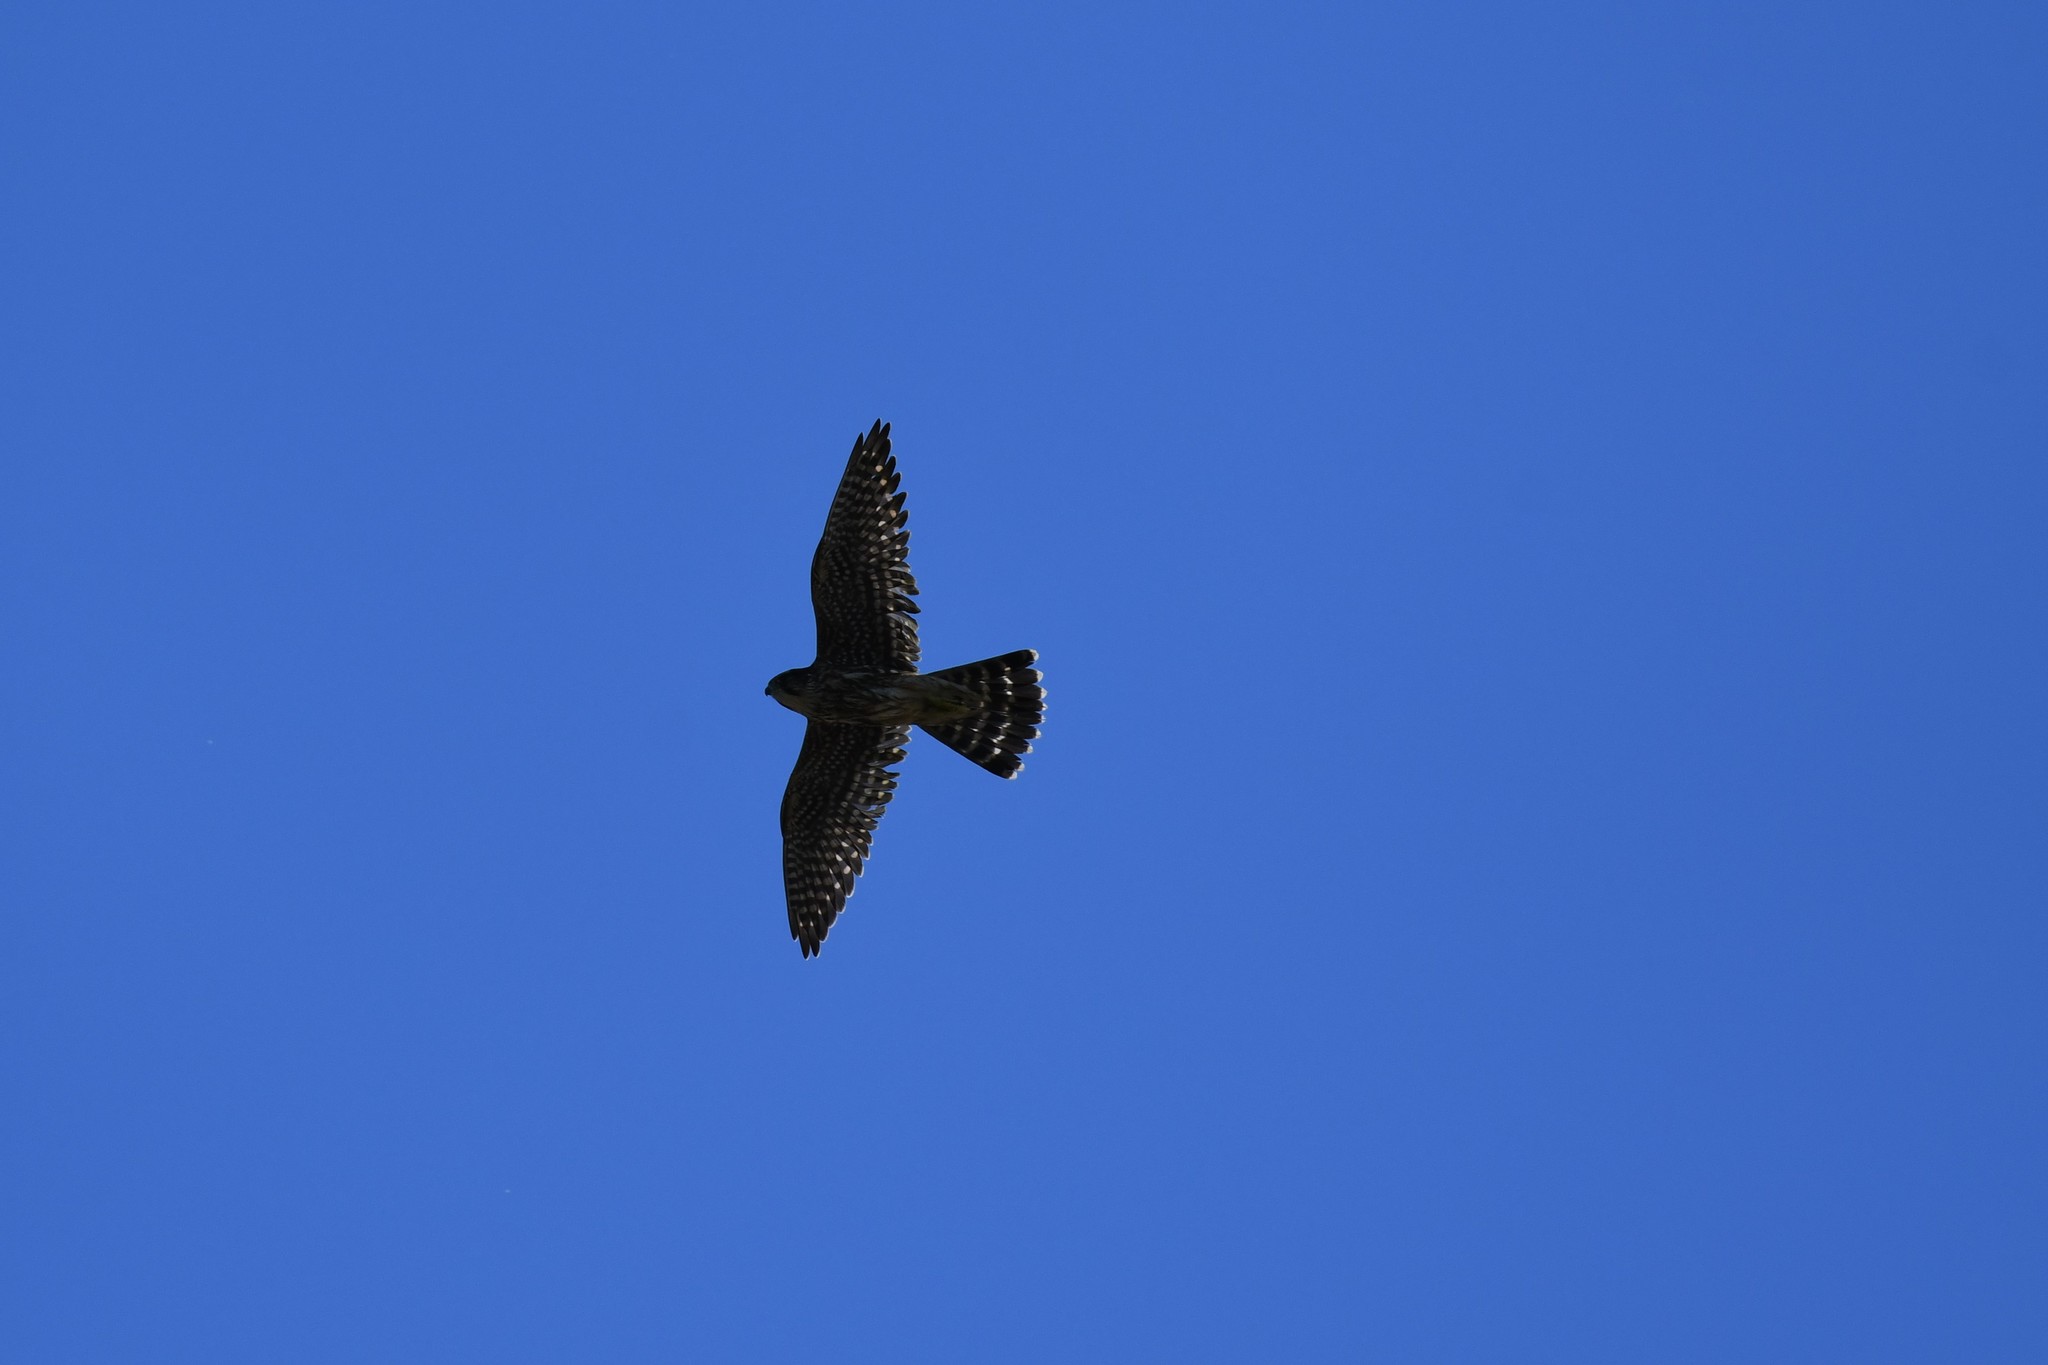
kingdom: Animalia
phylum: Chordata
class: Aves
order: Falconiformes
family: Falconidae
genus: Falco
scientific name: Falco columbarius
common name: Merlin
